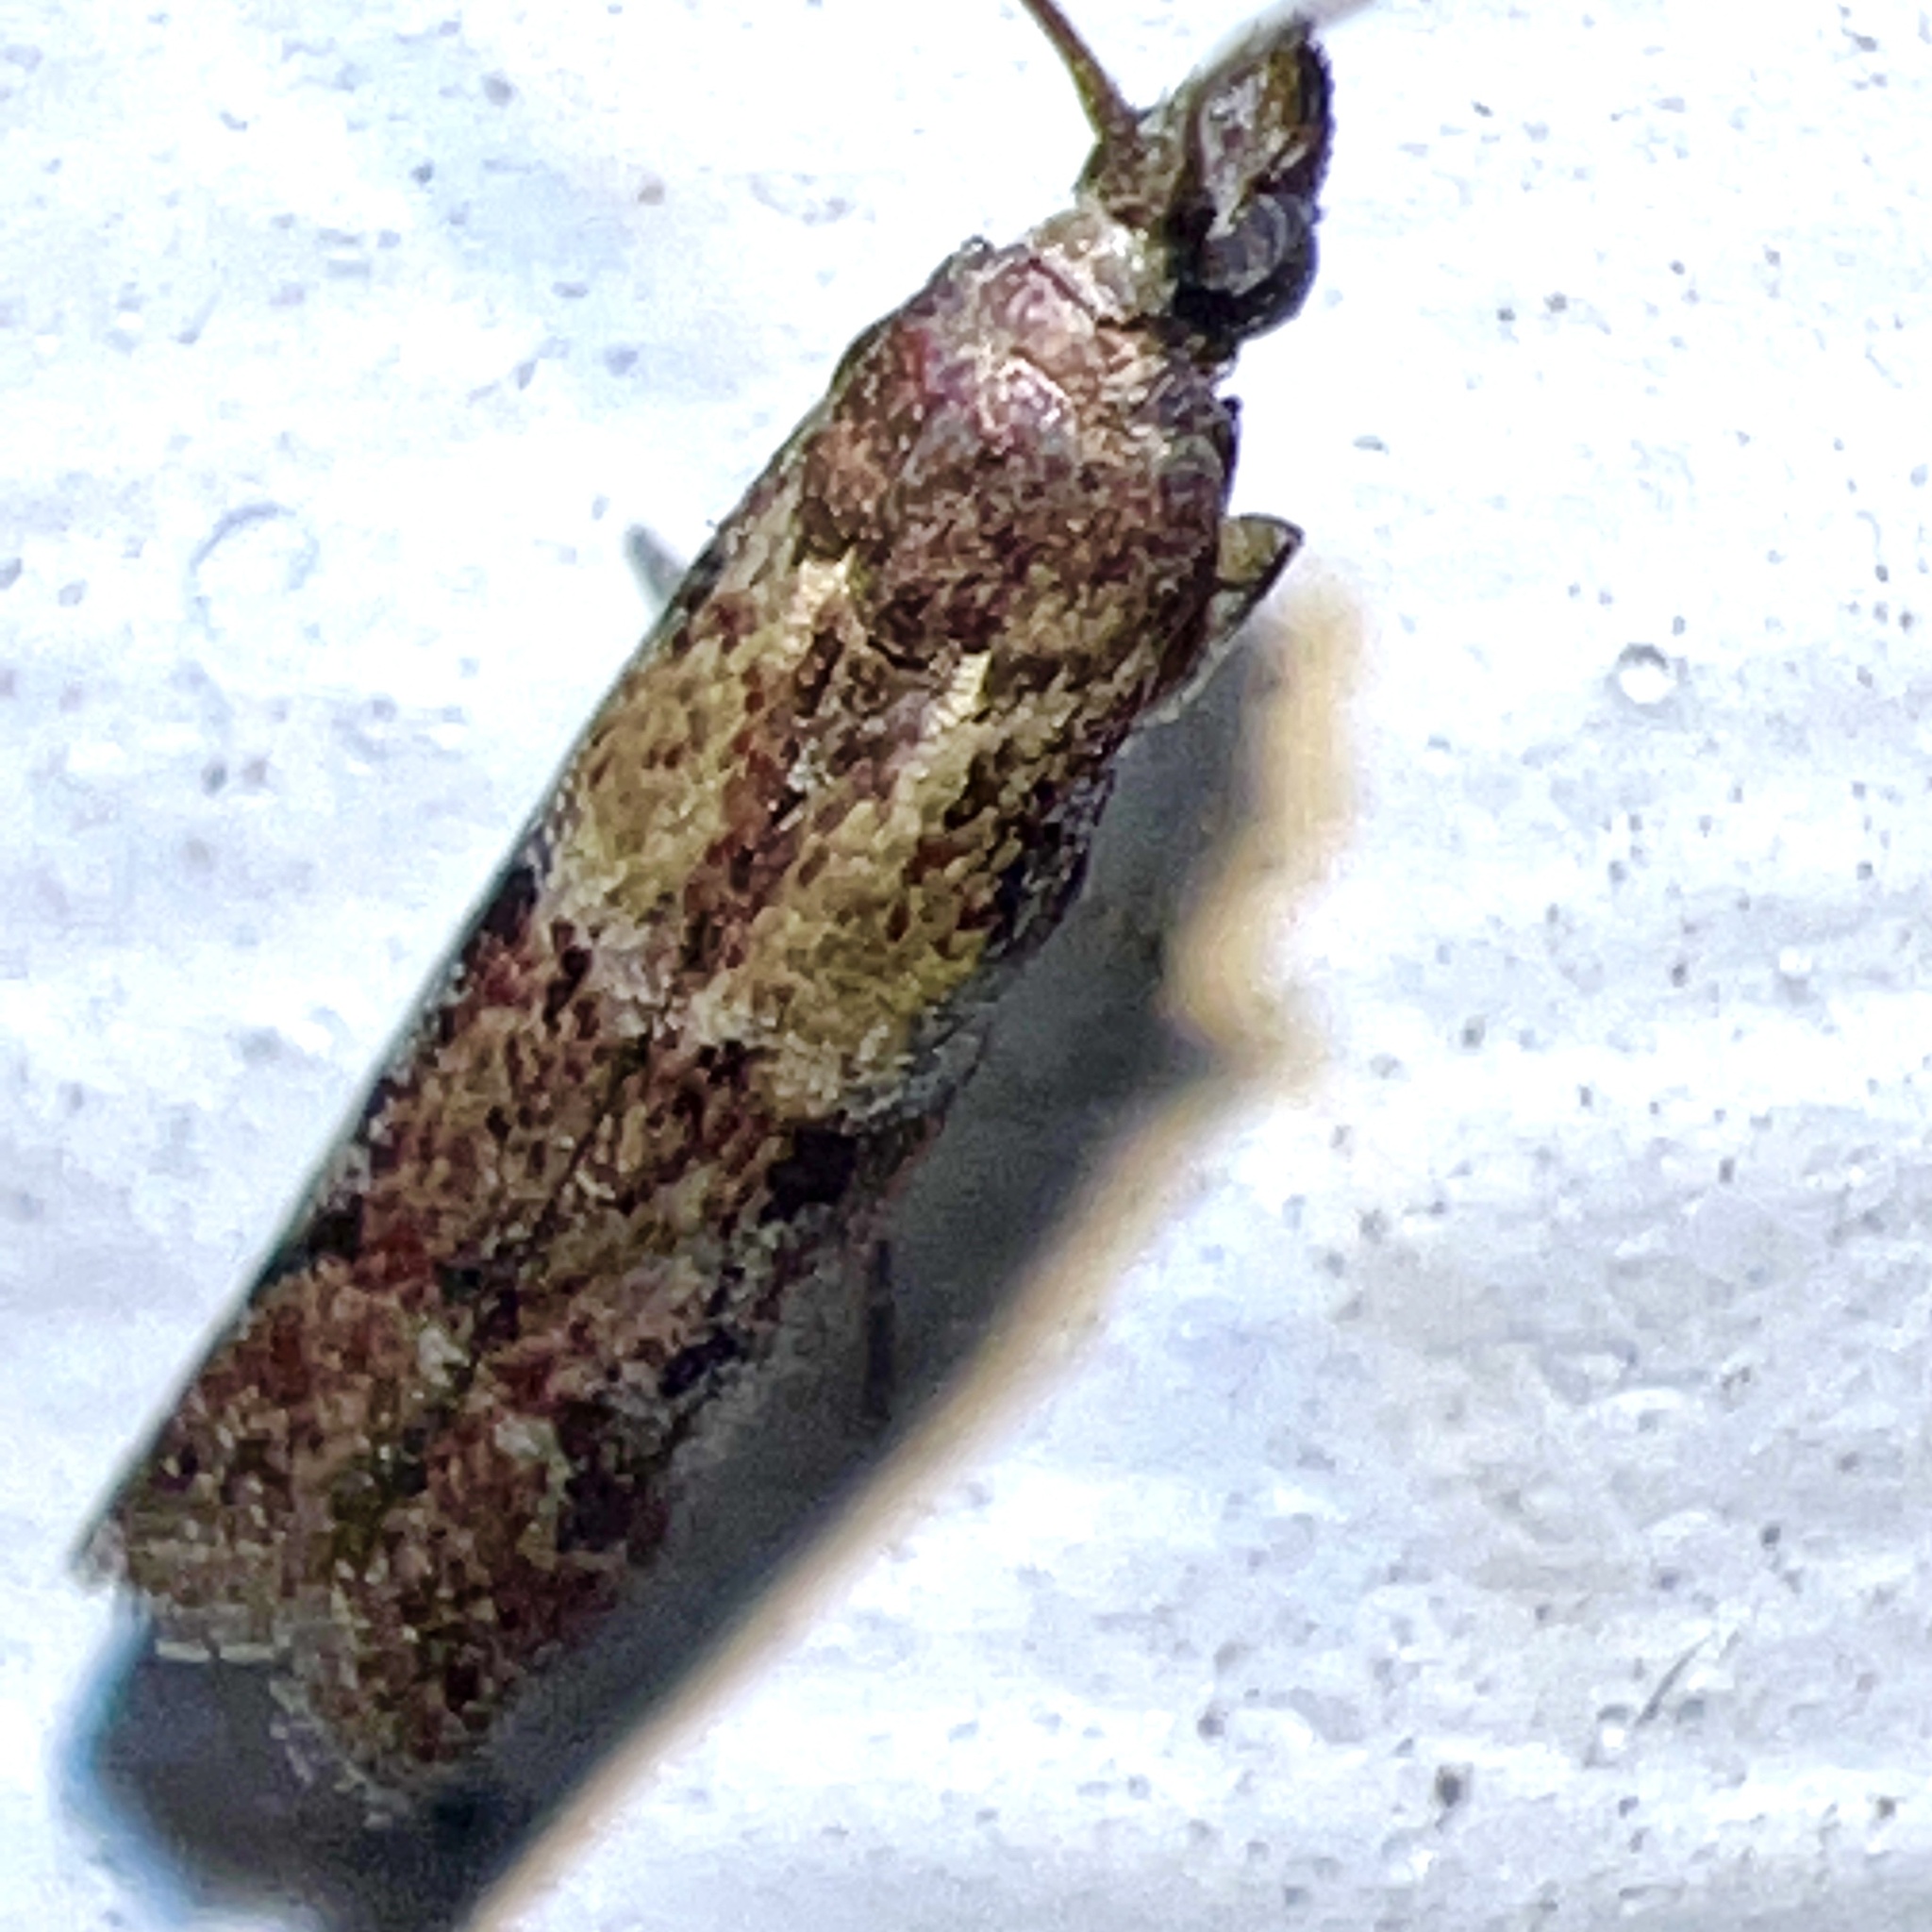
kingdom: Animalia
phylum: Arthropoda
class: Insecta
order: Lepidoptera
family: Pyralidae
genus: Ephestiodes
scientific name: Ephestiodes infimella
